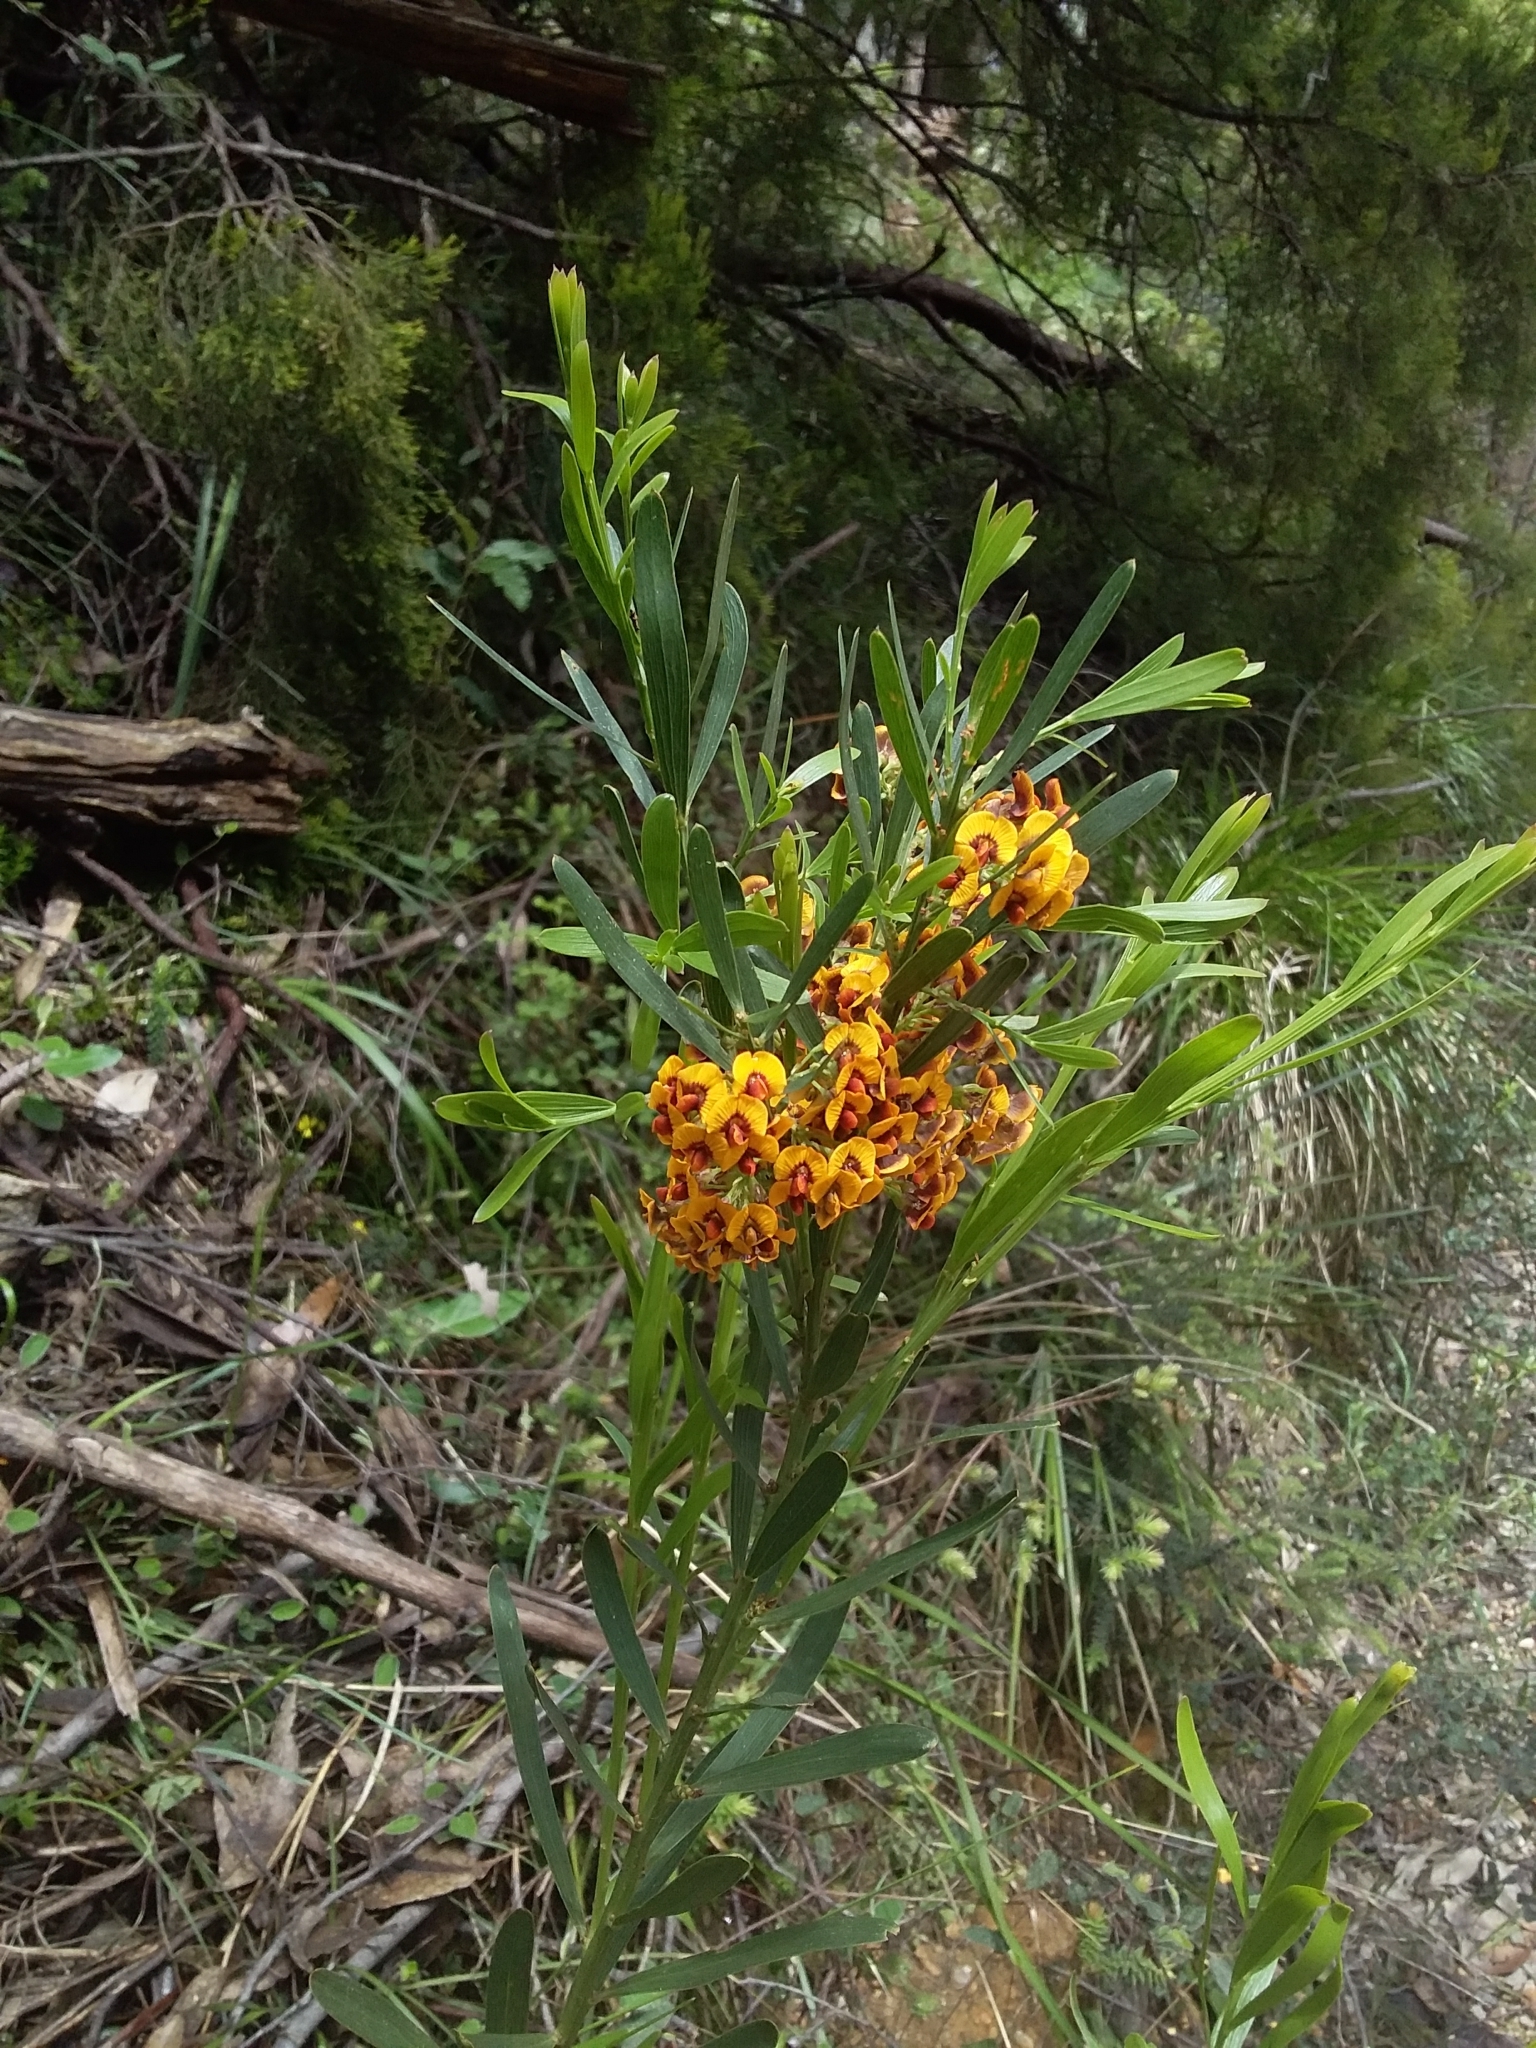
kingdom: Plantae
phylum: Tracheophyta
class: Magnoliopsida
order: Fabales
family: Fabaceae
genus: Daviesia
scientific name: Daviesia leptophylla
